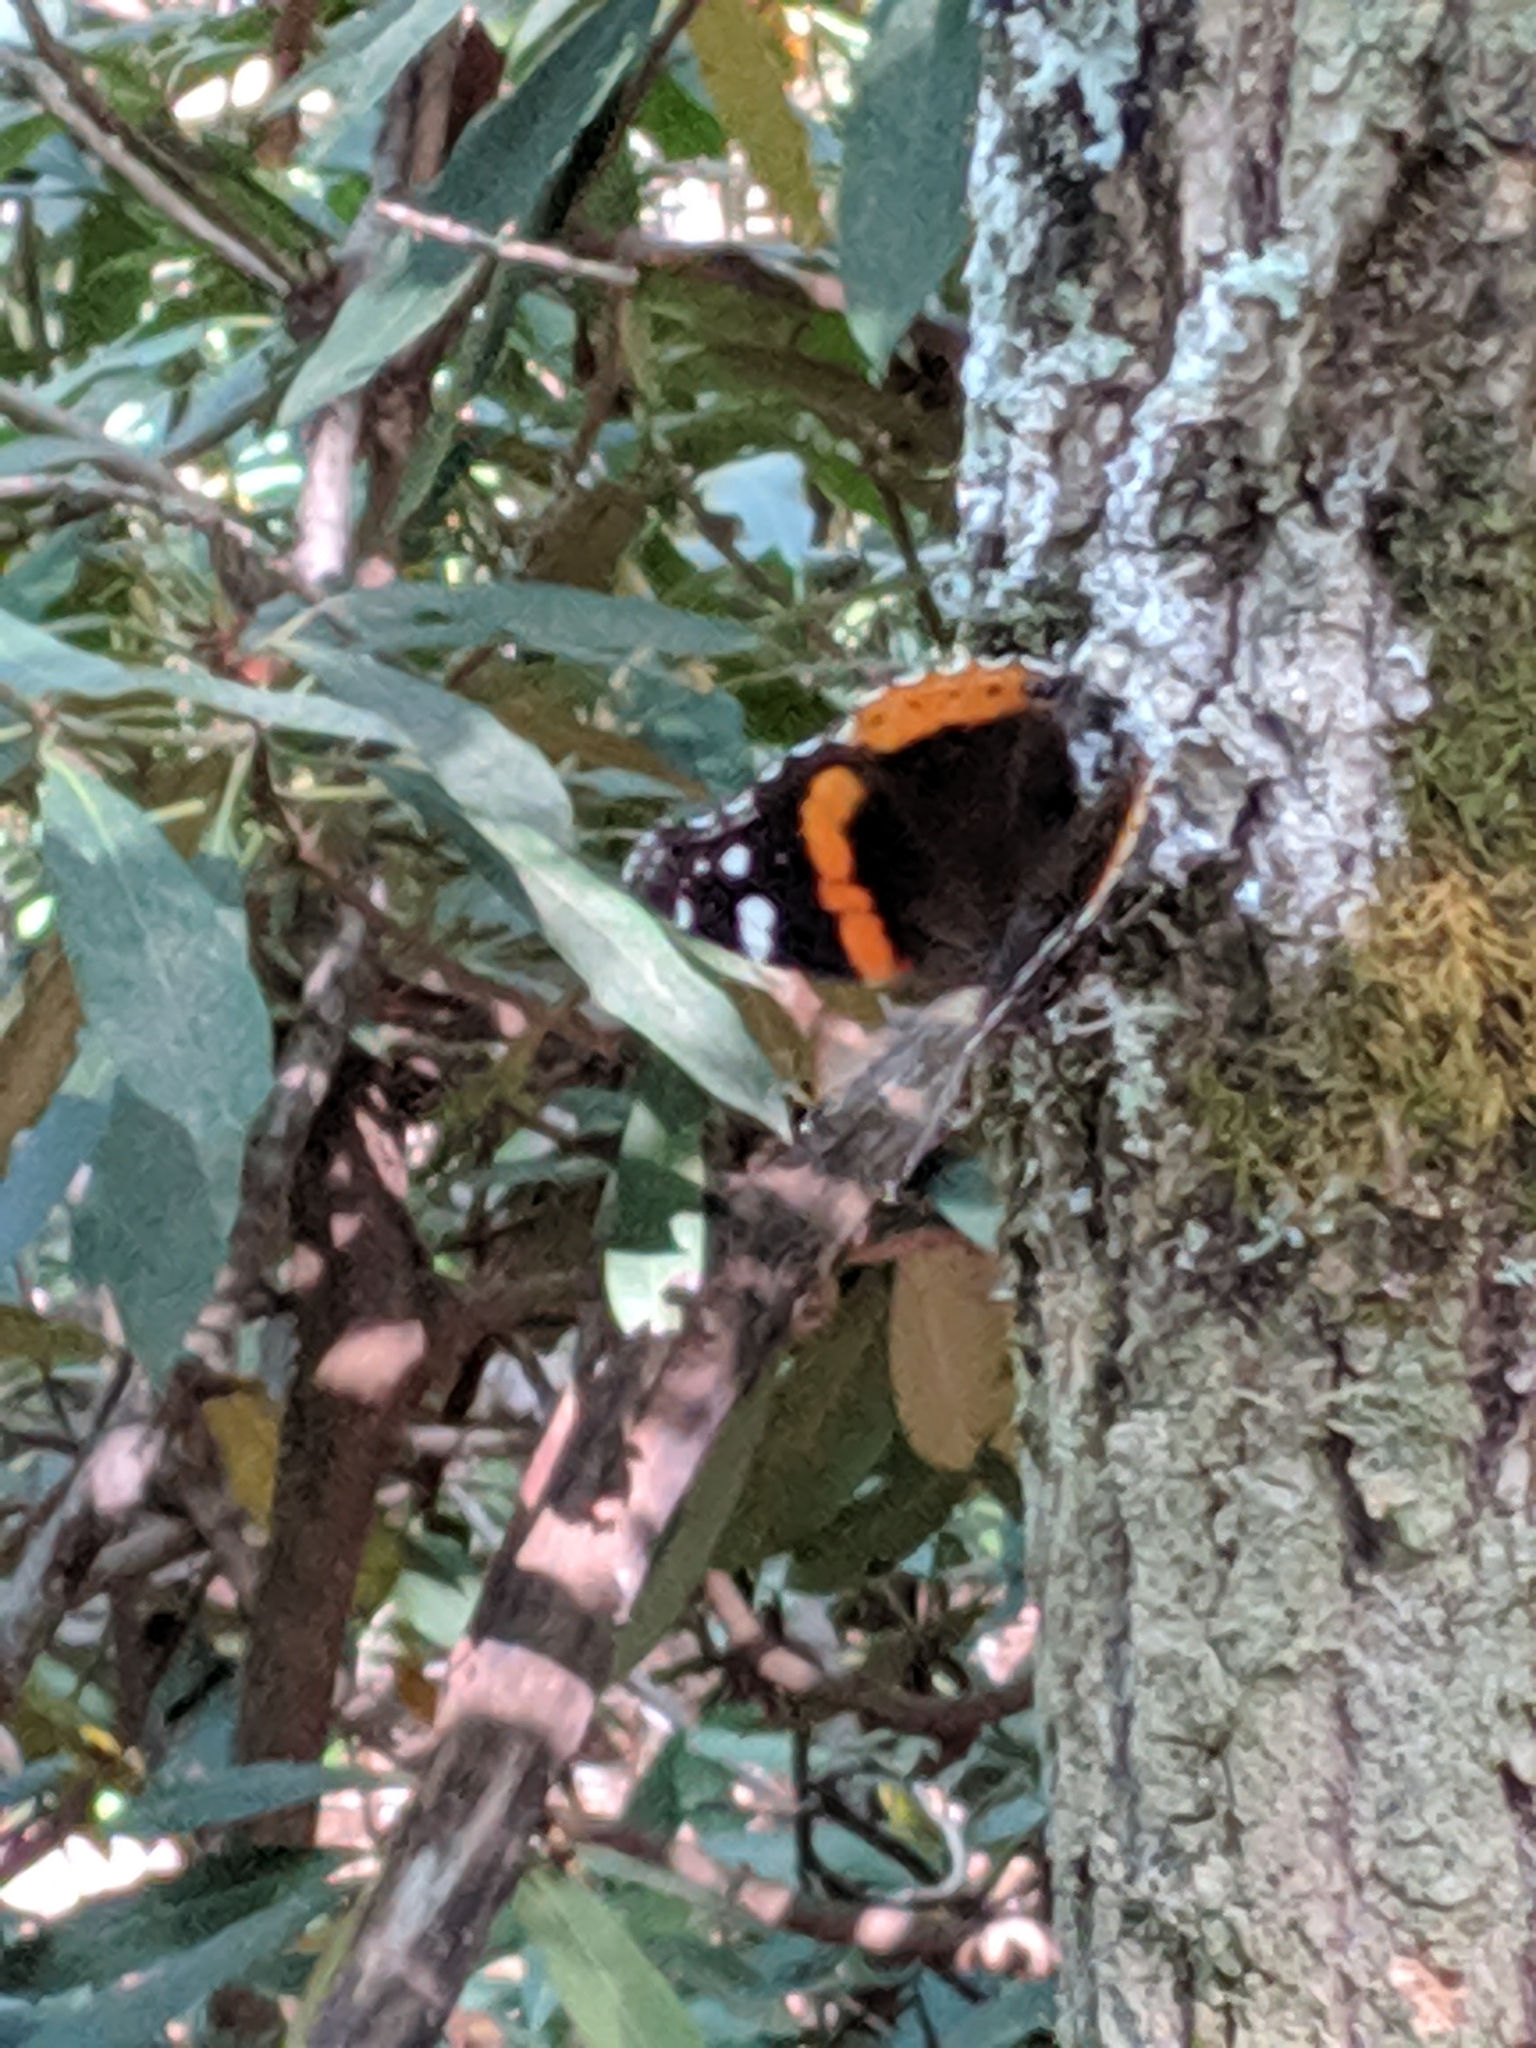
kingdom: Animalia
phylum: Arthropoda
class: Insecta
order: Lepidoptera
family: Nymphalidae
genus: Vanessa
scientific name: Vanessa atalanta
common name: Red admiral
